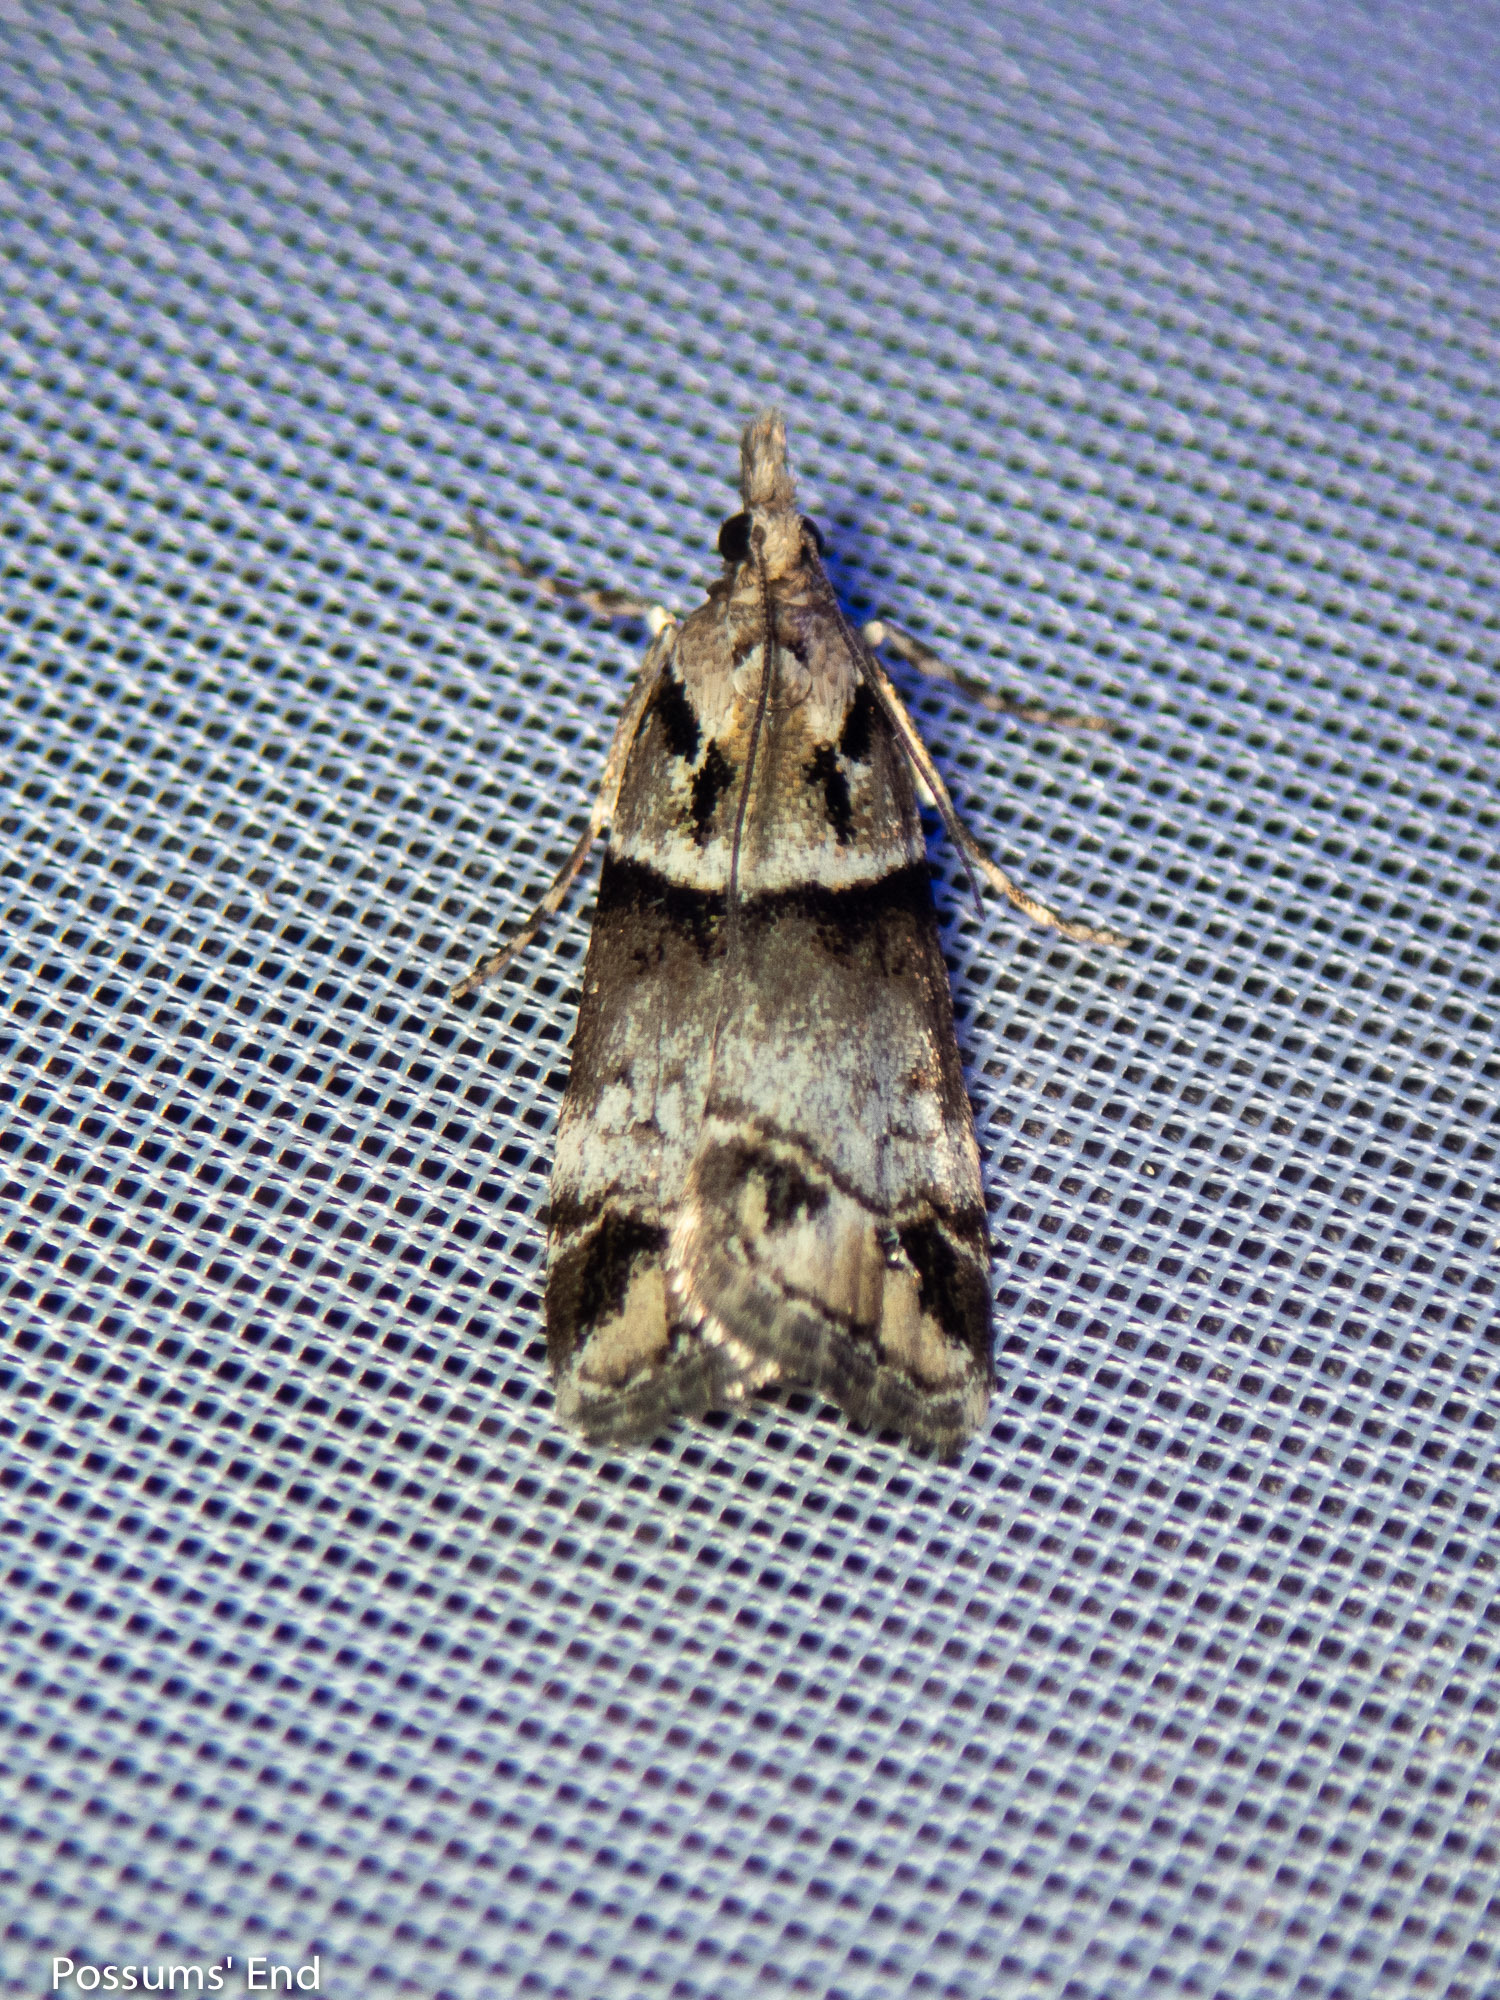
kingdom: Animalia
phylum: Arthropoda
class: Insecta
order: Lepidoptera
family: Crambidae
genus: Eudonia
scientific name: Eudonia periphanes
